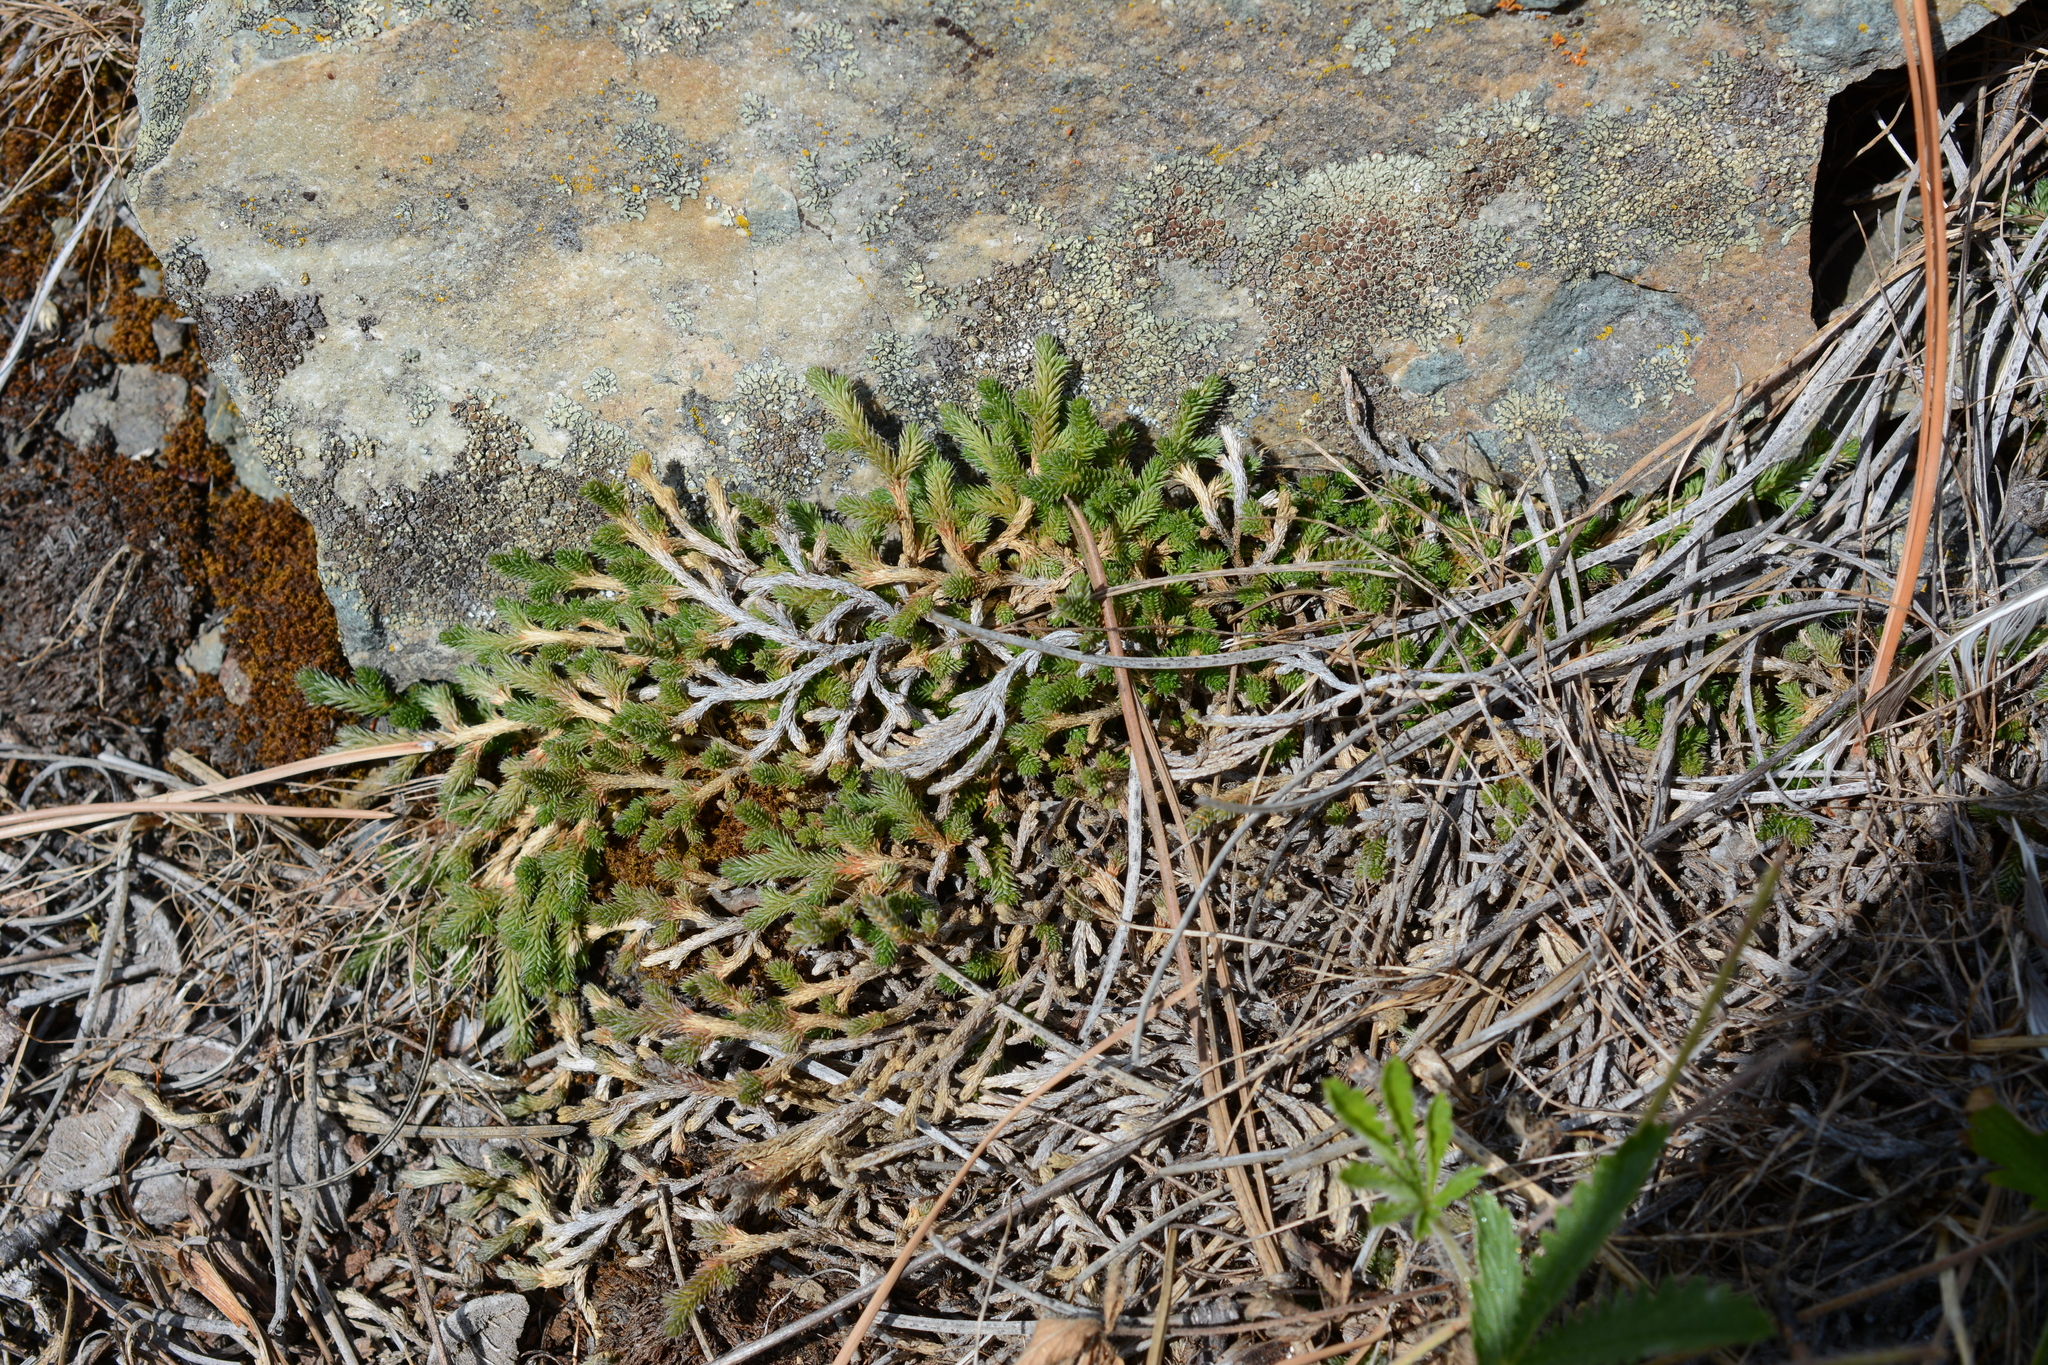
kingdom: Plantae
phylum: Tracheophyta
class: Lycopodiopsida
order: Selaginellales
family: Selaginellaceae
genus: Selaginella
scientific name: Selaginella wallacei
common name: Wallace's selaginella
